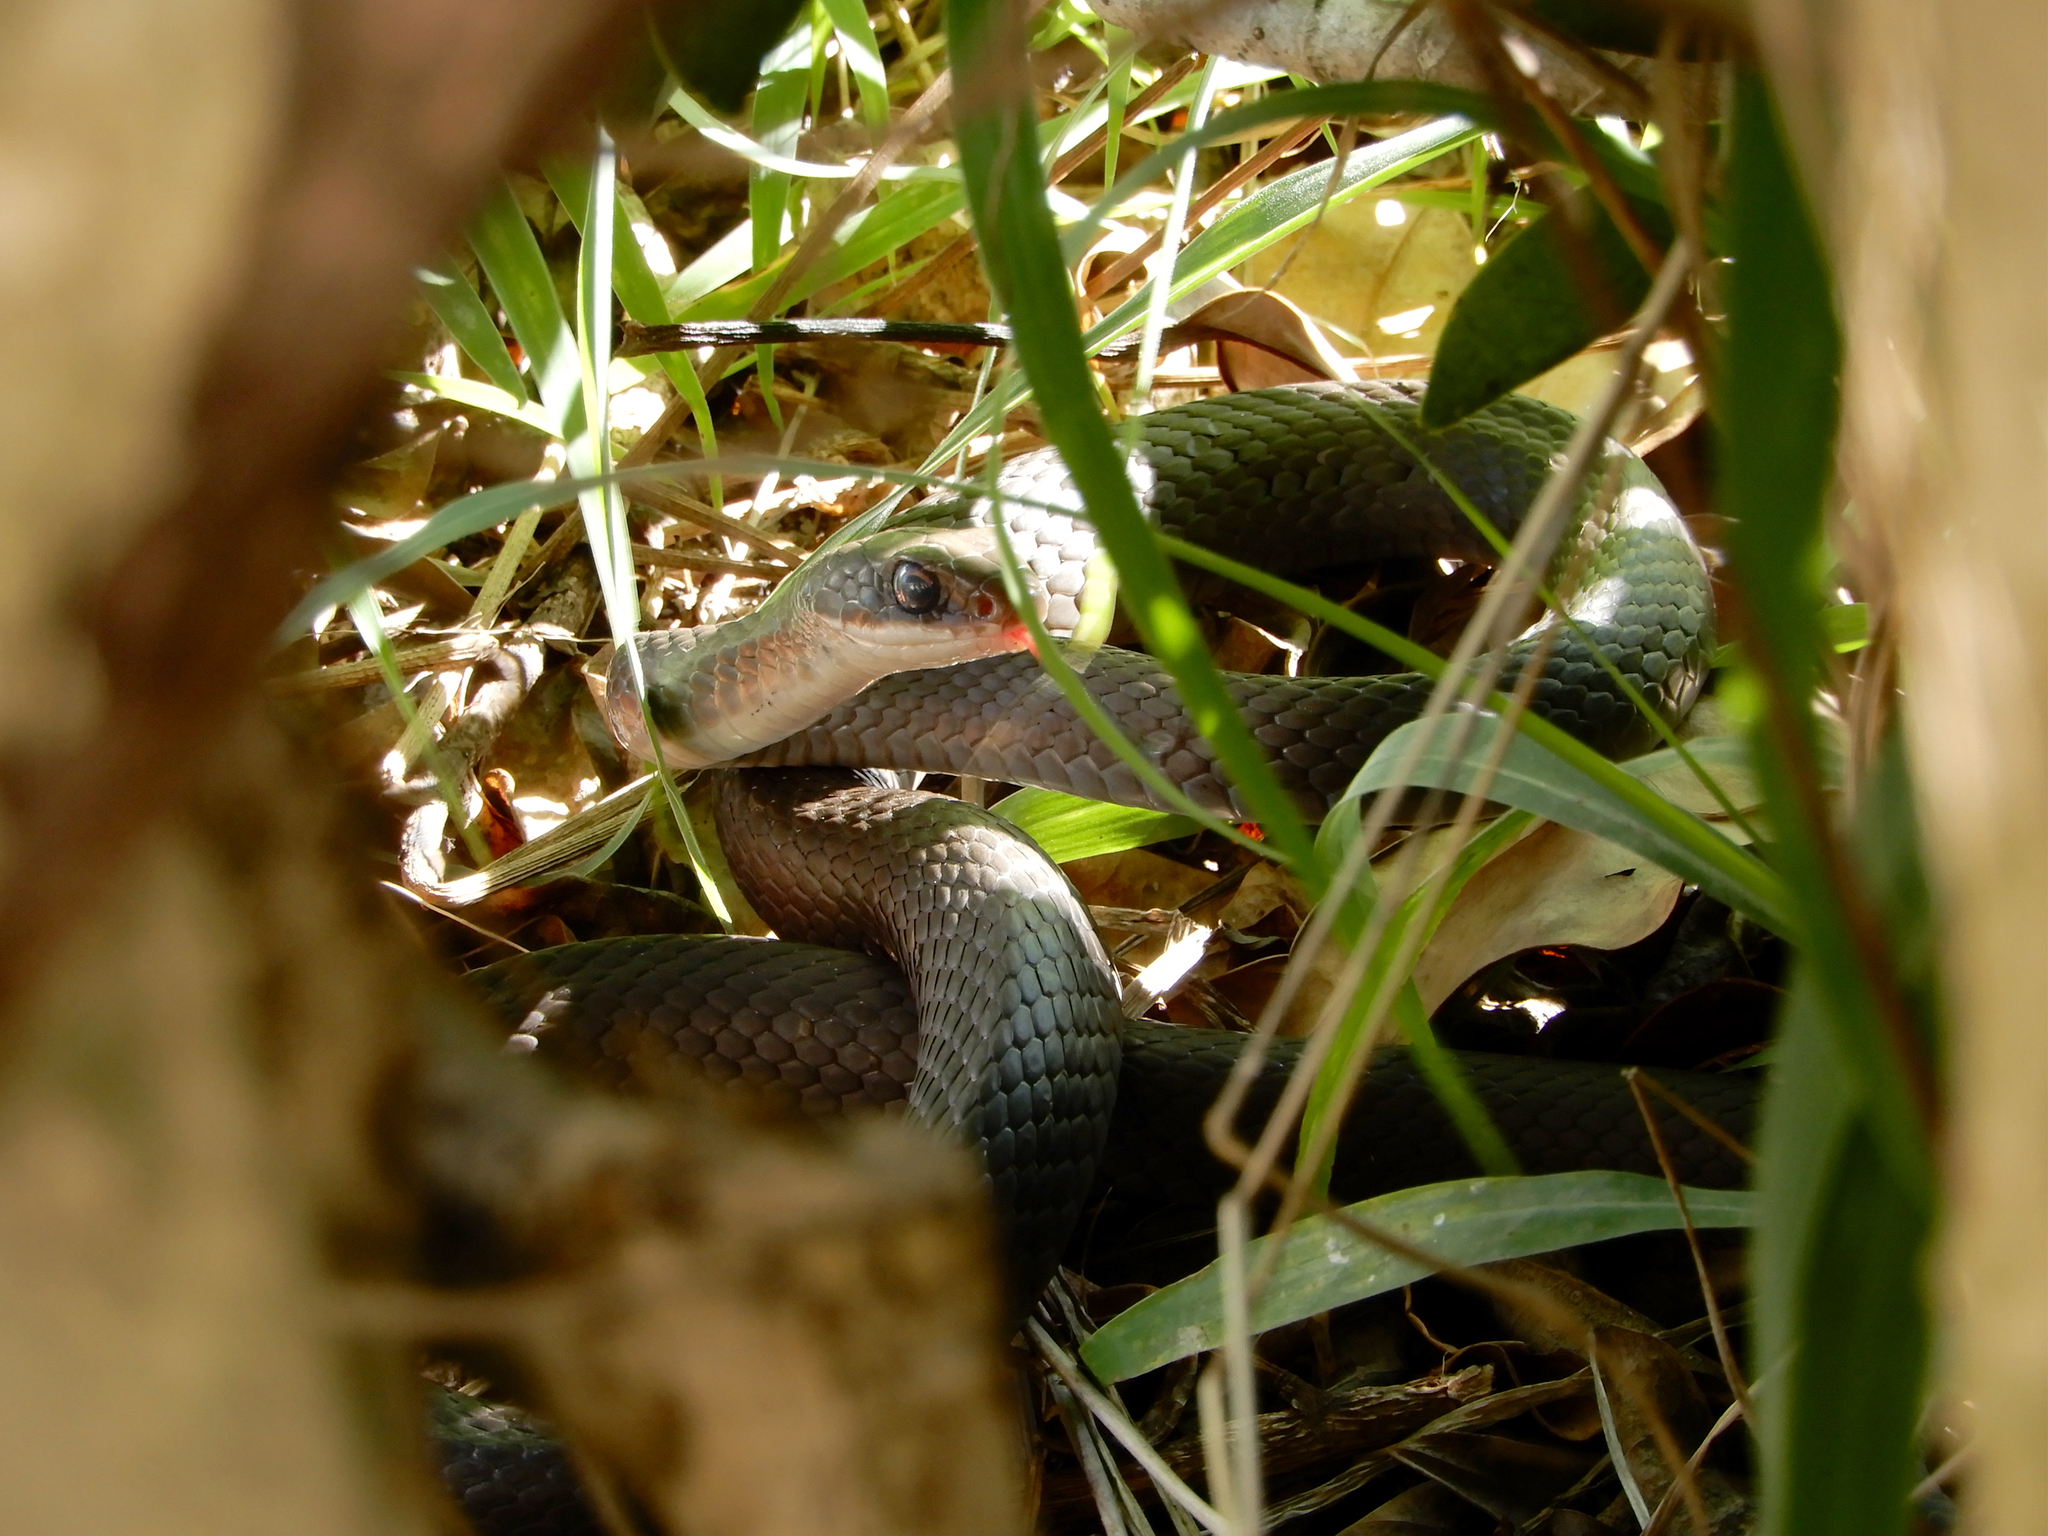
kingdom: Animalia
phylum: Chordata
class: Squamata
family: Colubridae
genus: Coluber
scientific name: Coluber constrictor
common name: Eastern racer
